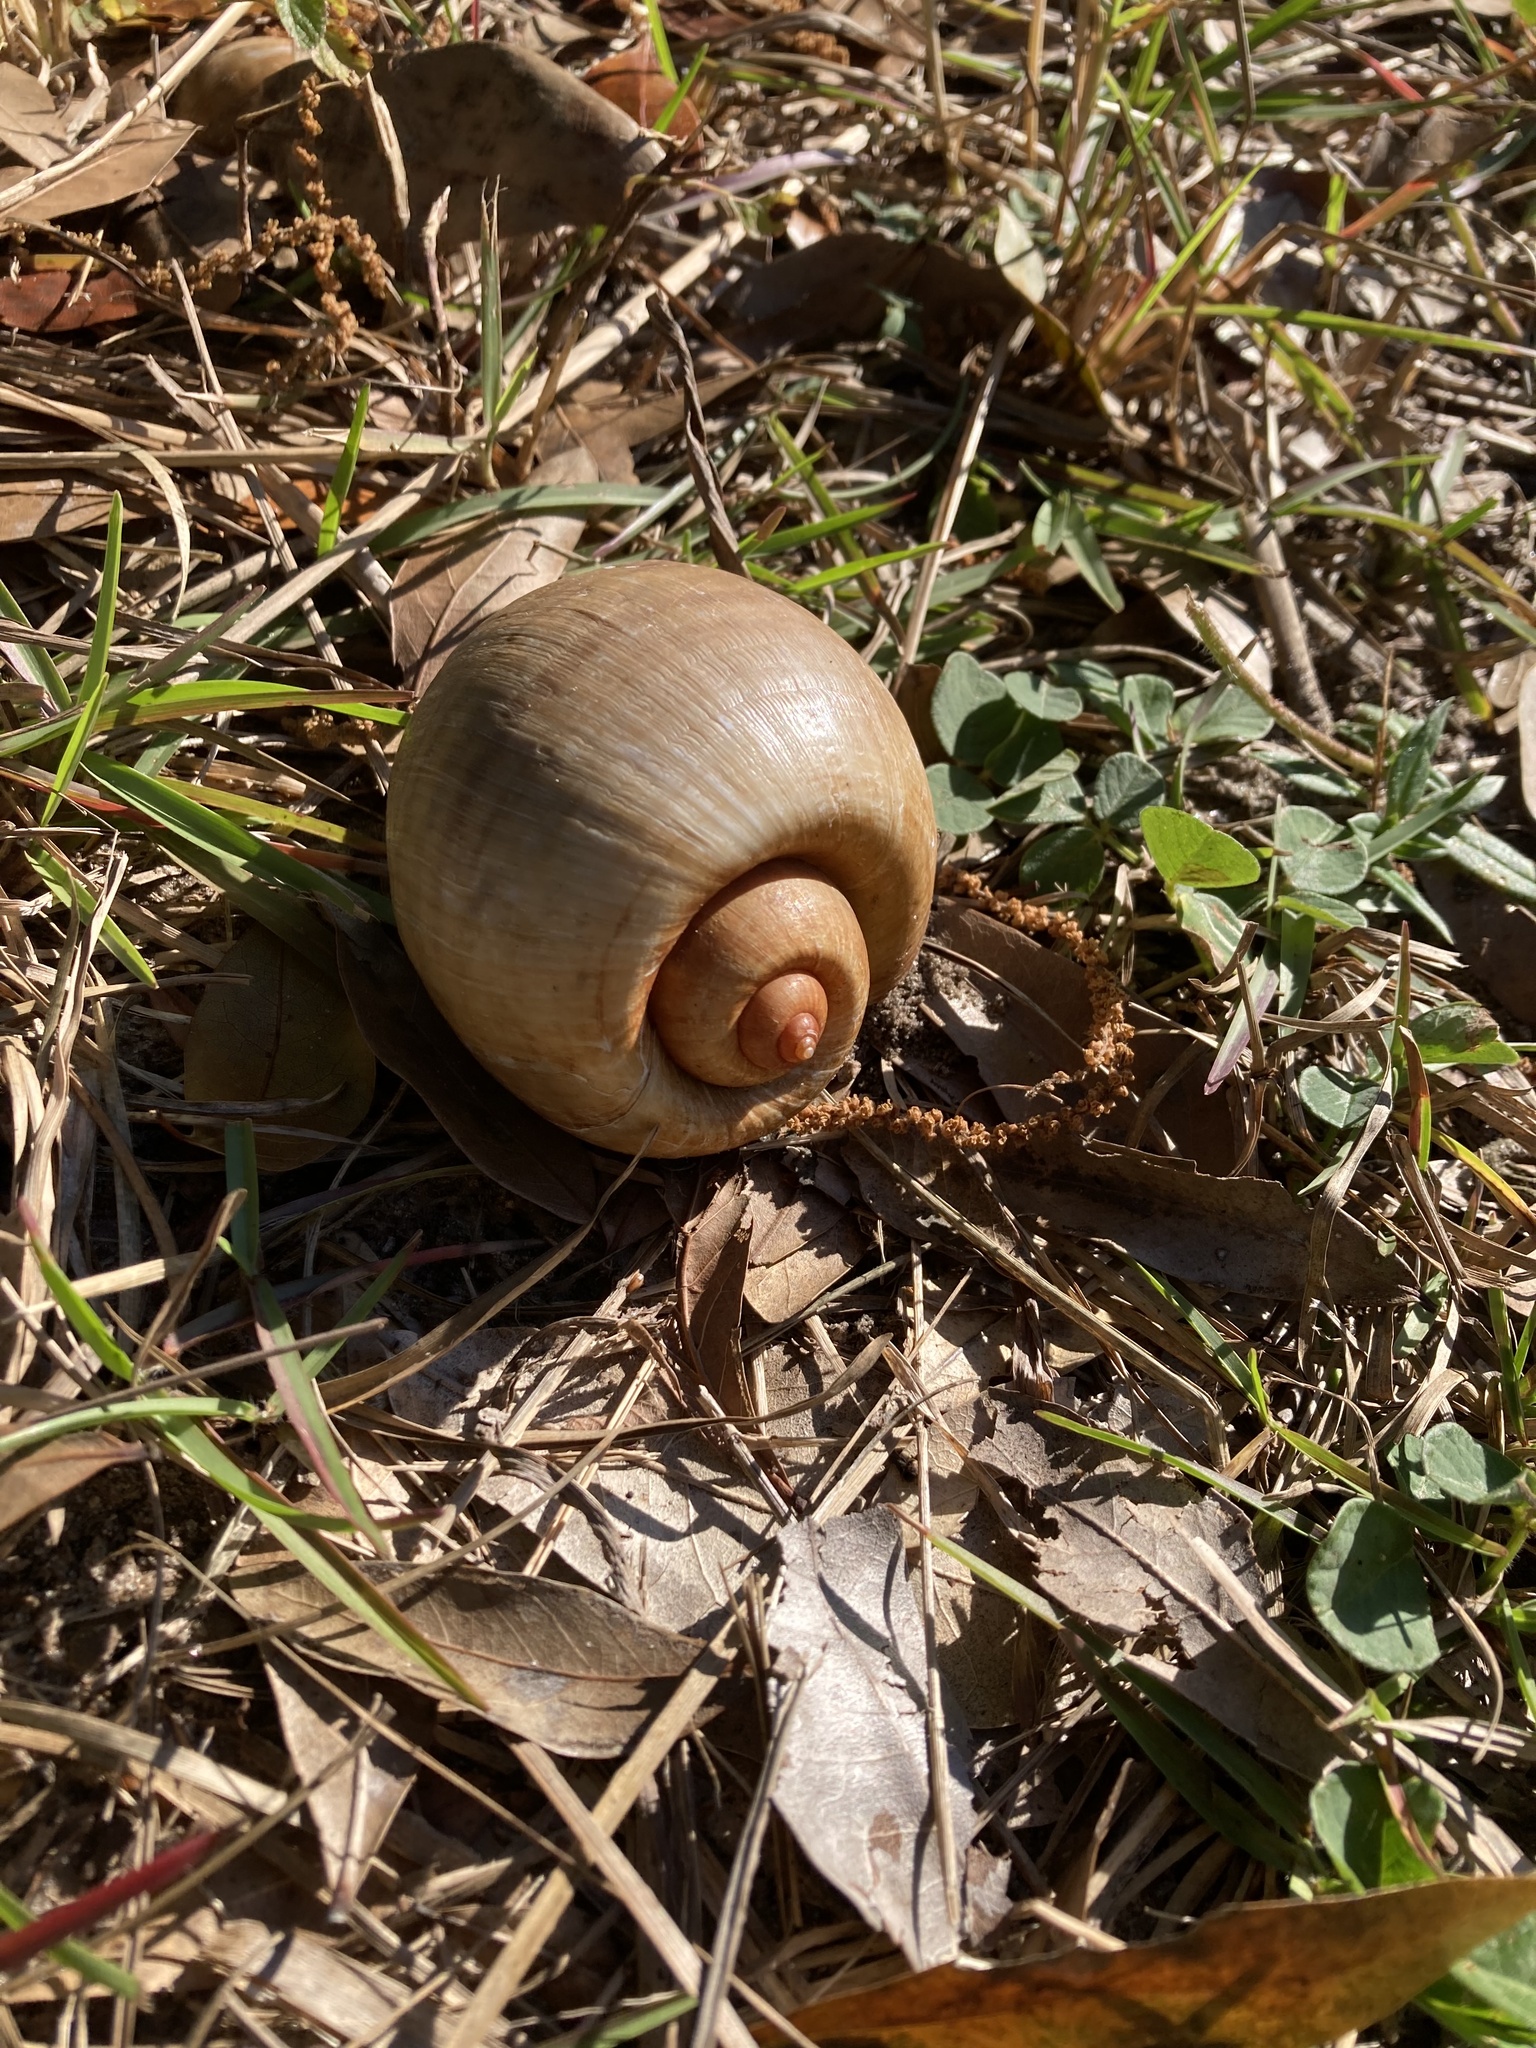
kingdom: Animalia
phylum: Mollusca
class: Gastropoda
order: Architaenioglossa
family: Ampullariidae
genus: Pomacea
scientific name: Pomacea maculata
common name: Giant applesnail
